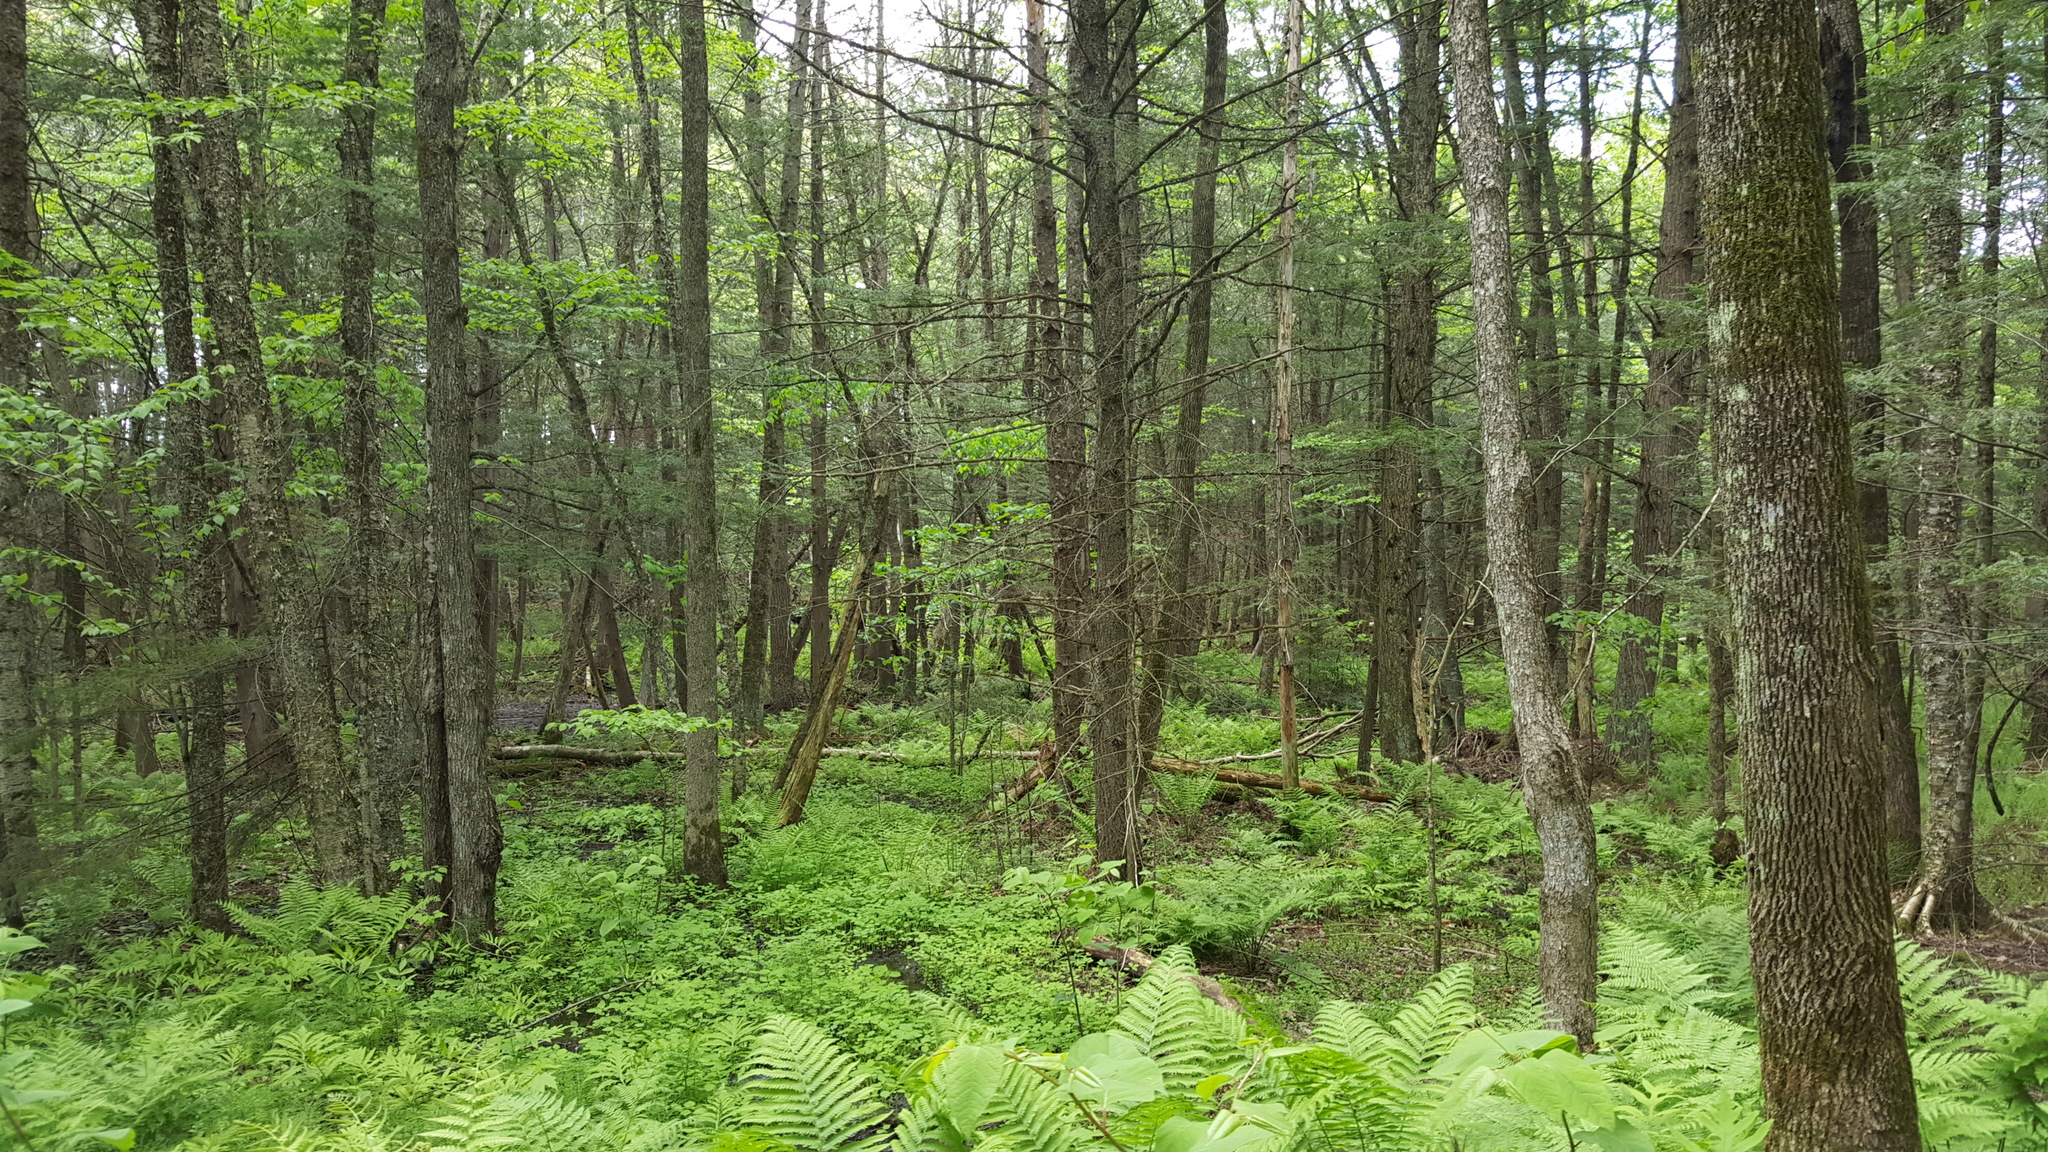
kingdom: Plantae
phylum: Tracheophyta
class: Magnoliopsida
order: Lamiales
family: Oleaceae
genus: Fraxinus
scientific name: Fraxinus americana
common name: White ash
